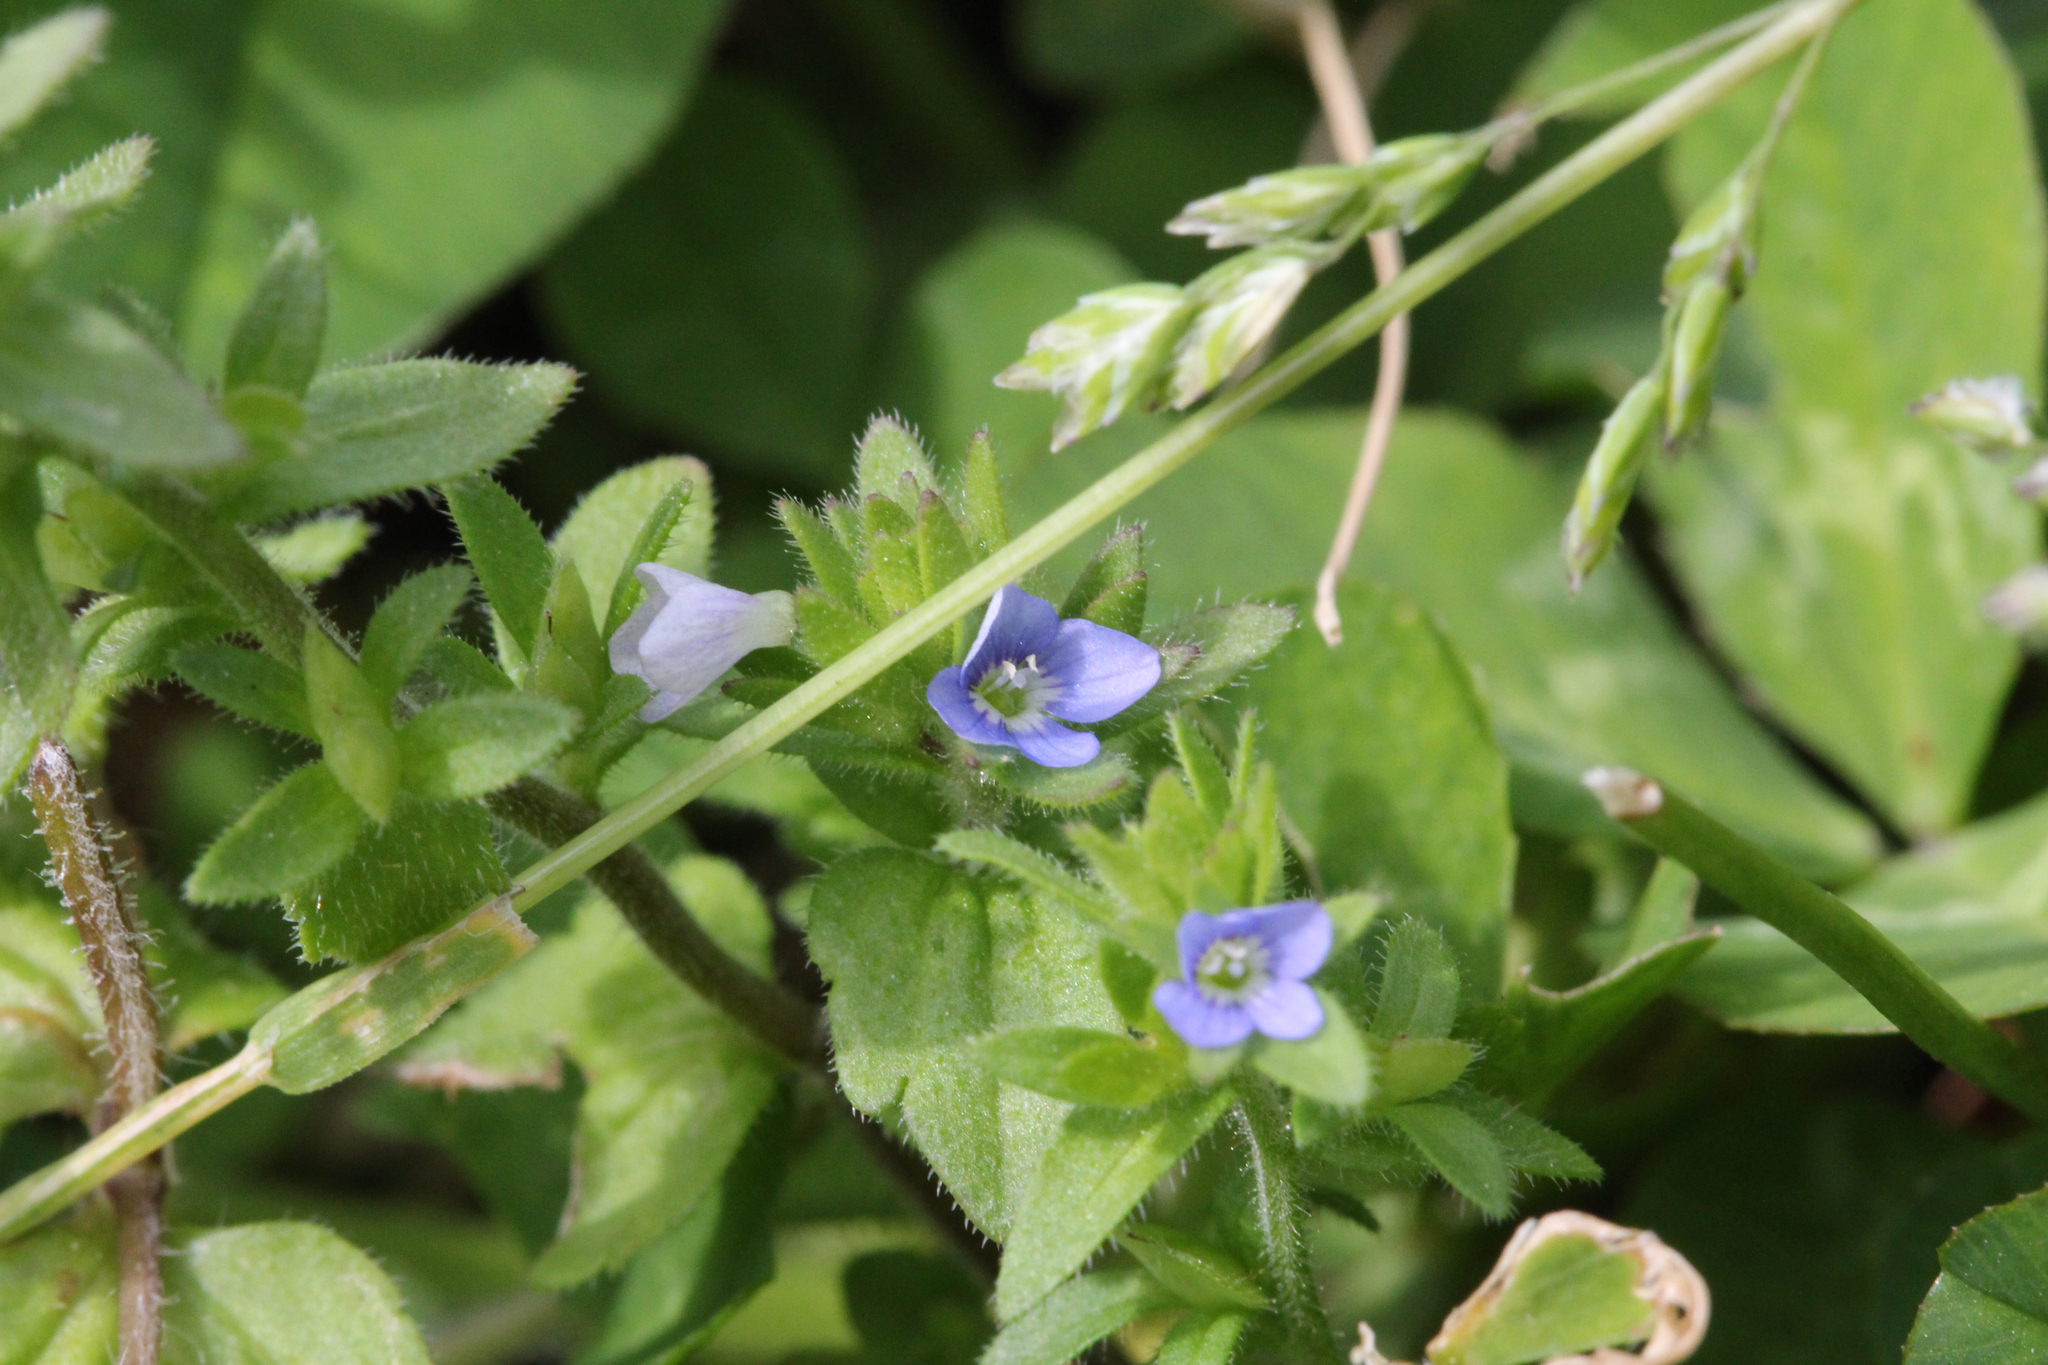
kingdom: Plantae
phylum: Tracheophyta
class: Magnoliopsida
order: Lamiales
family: Plantaginaceae
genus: Veronica
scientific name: Veronica arvensis
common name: Corn speedwell
